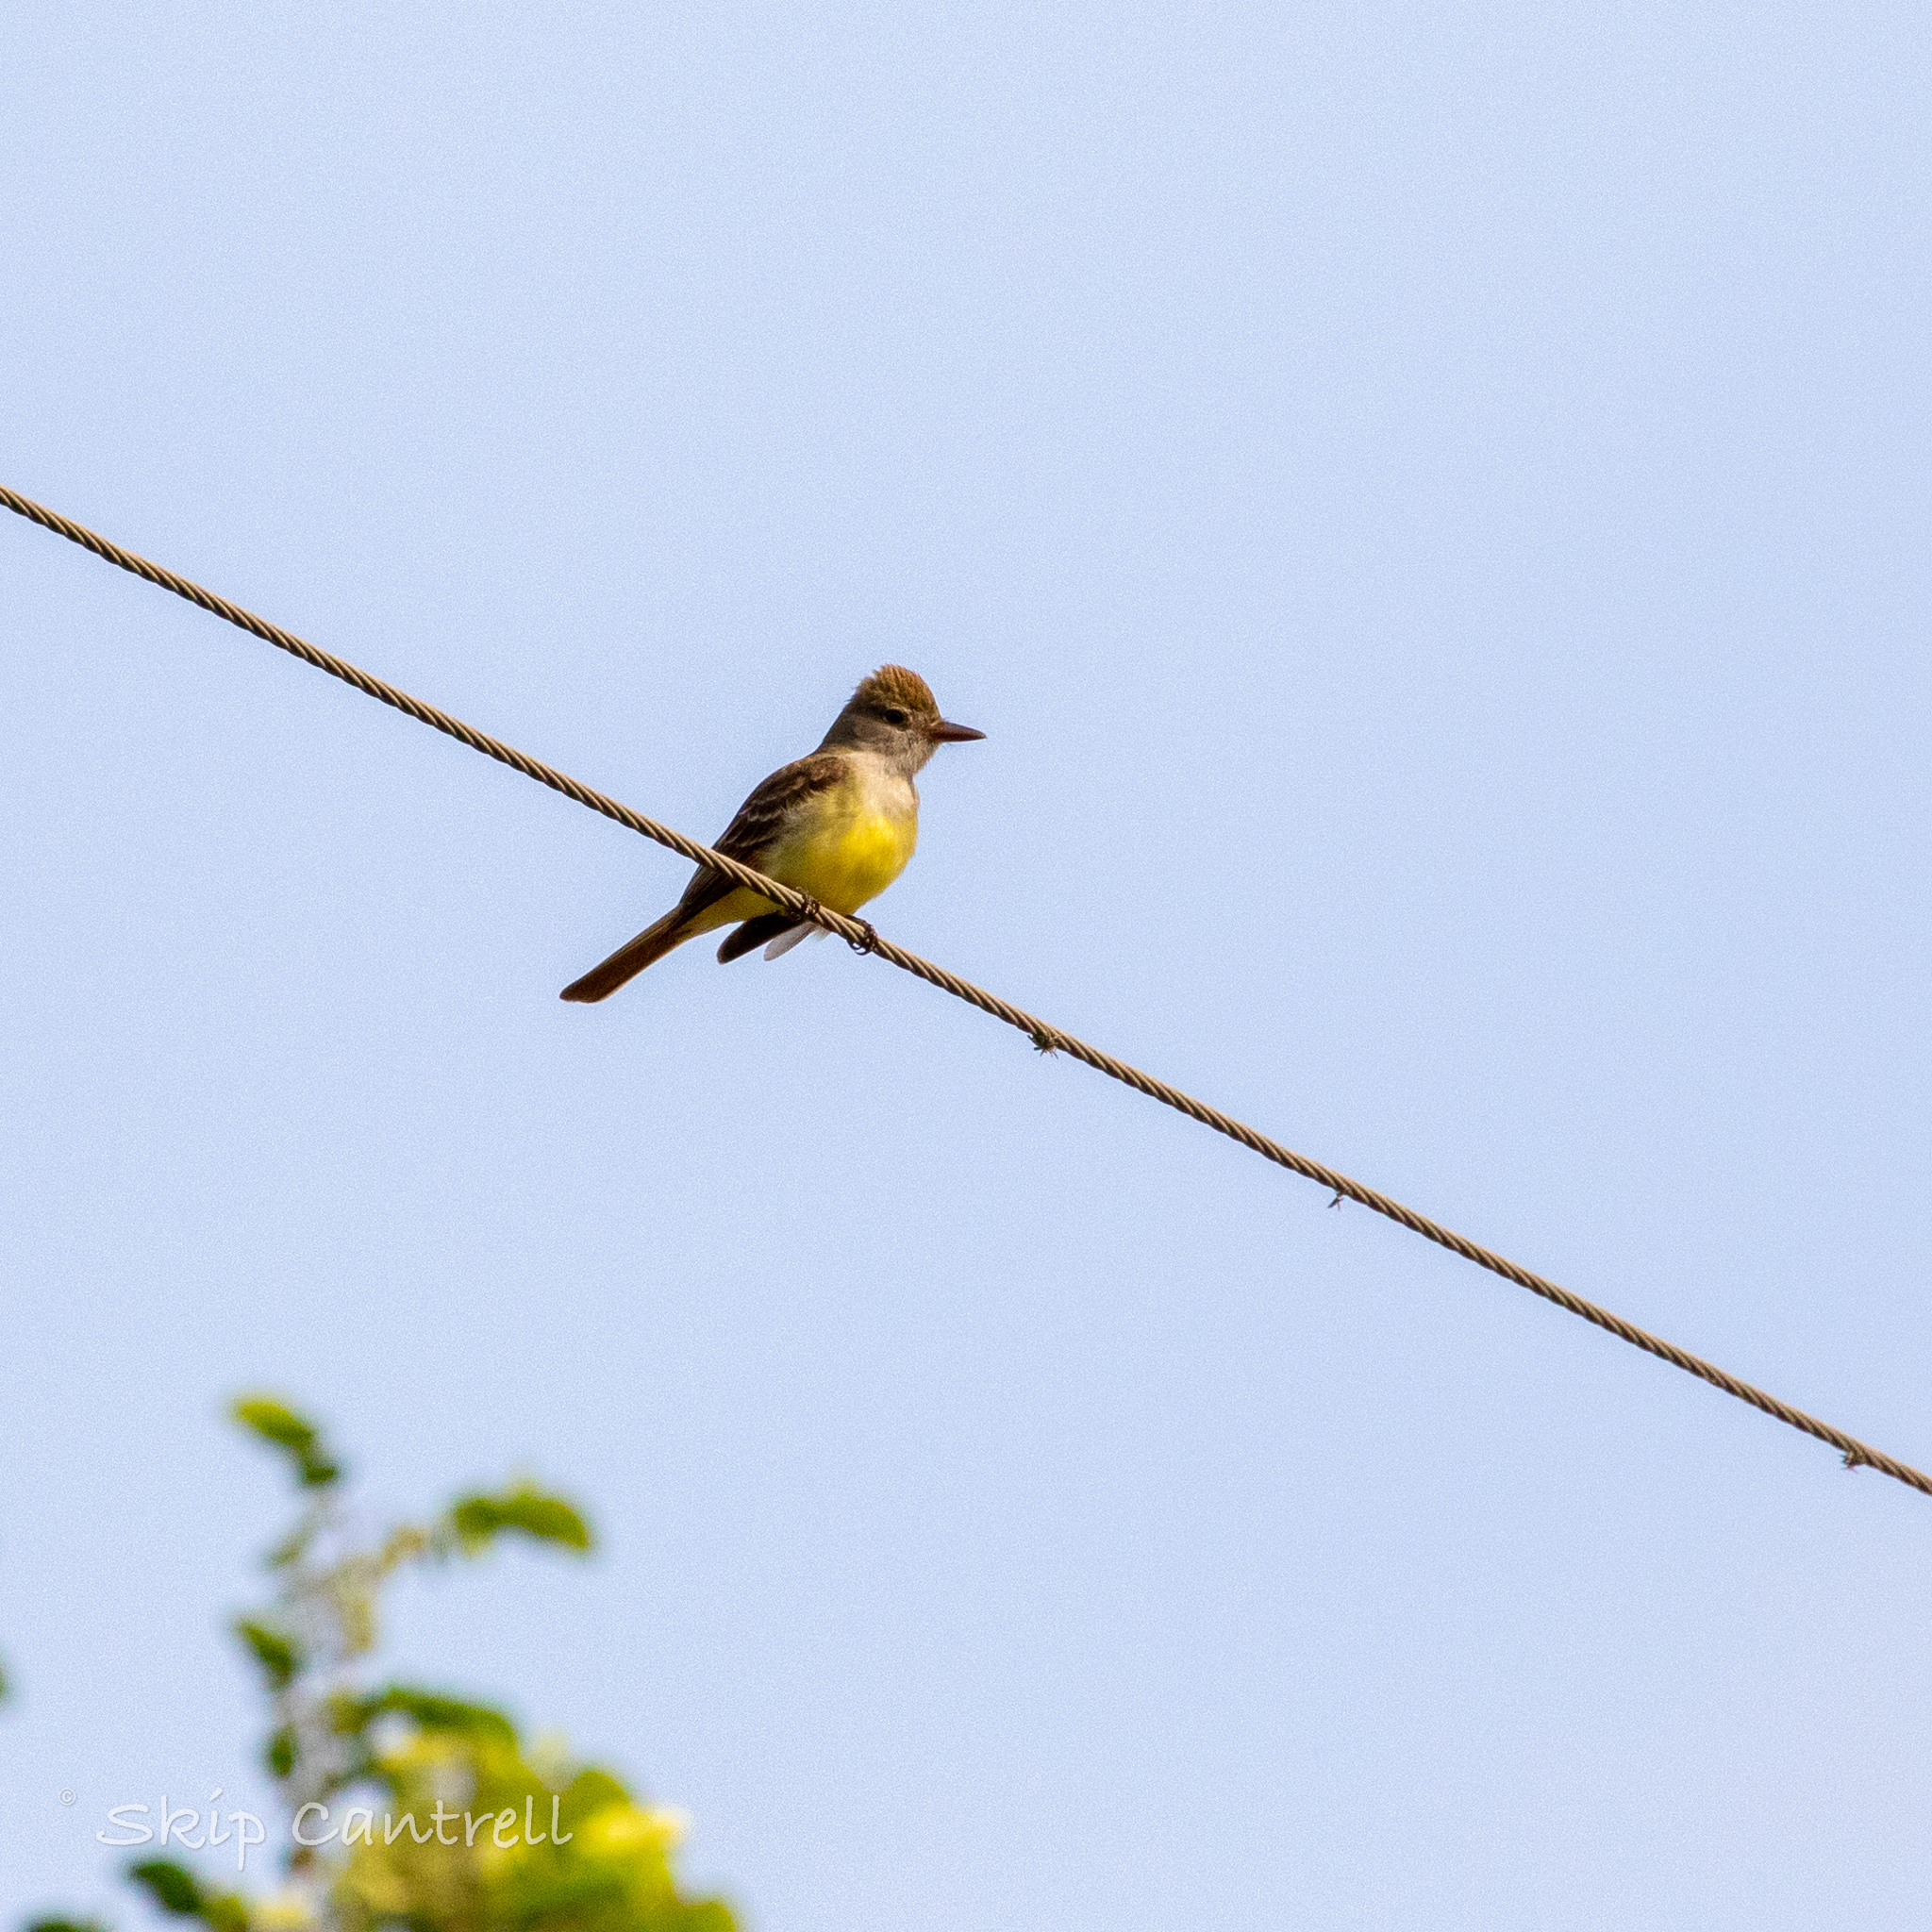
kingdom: Animalia
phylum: Chordata
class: Aves
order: Passeriformes
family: Tyrannidae
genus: Myiarchus
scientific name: Myiarchus crinitus
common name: Great crested flycatcher
